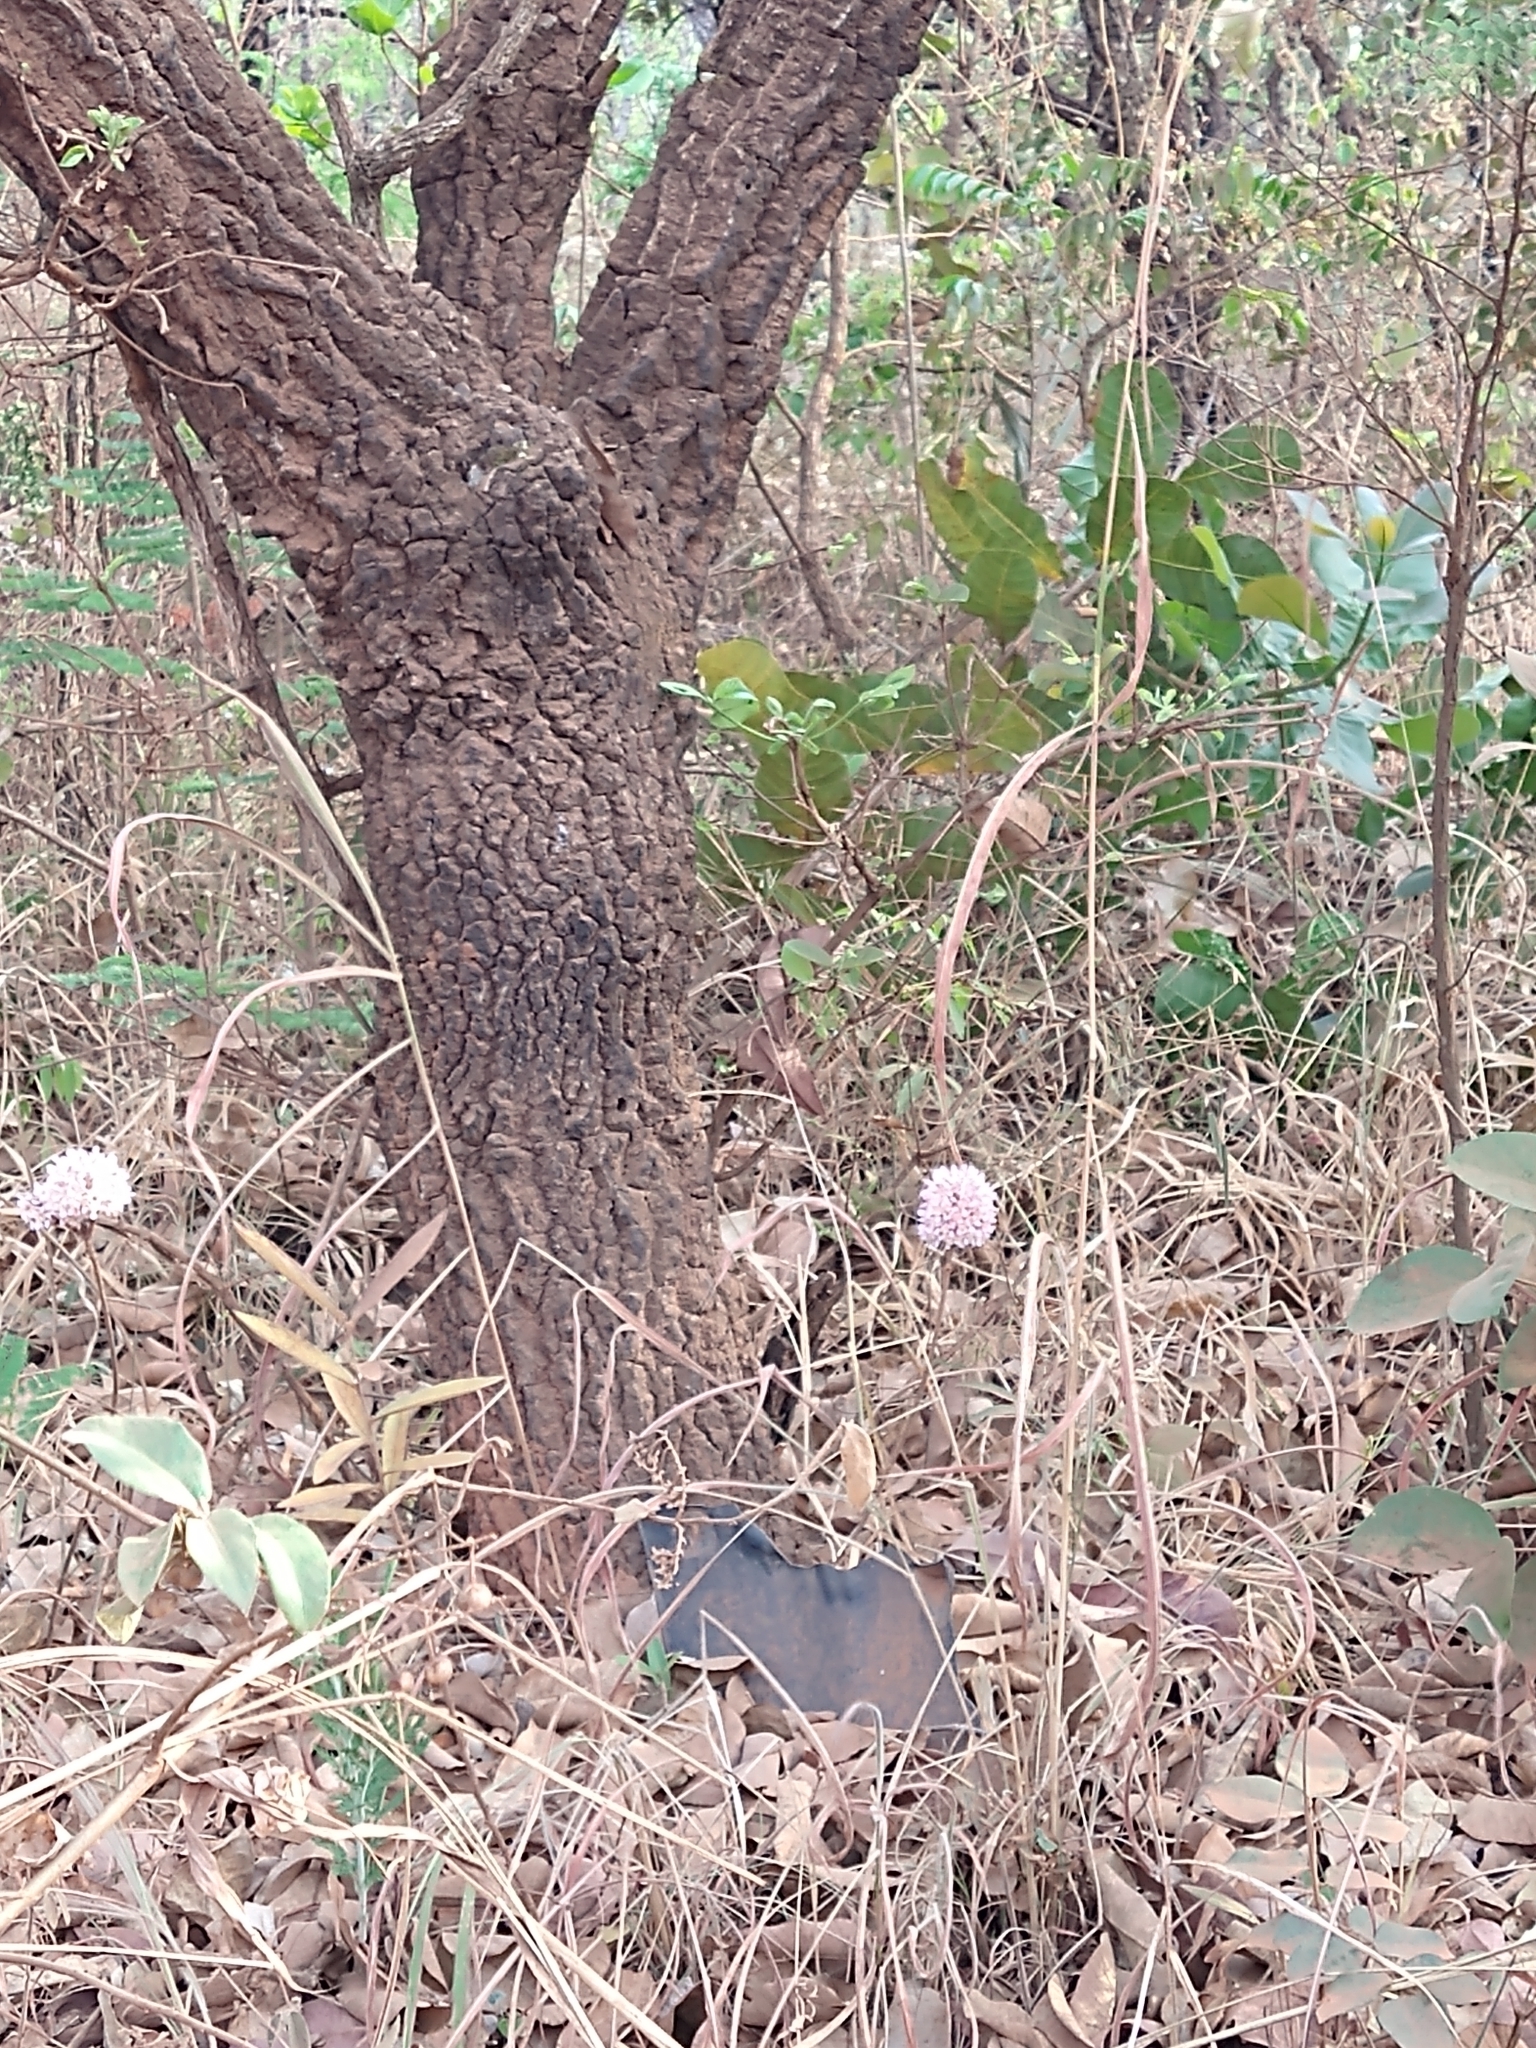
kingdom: Plantae
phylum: Tracheophyta
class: Magnoliopsida
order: Malpighiales
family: Malpighiaceae
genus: Pterandra
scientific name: Pterandra pyroidea
